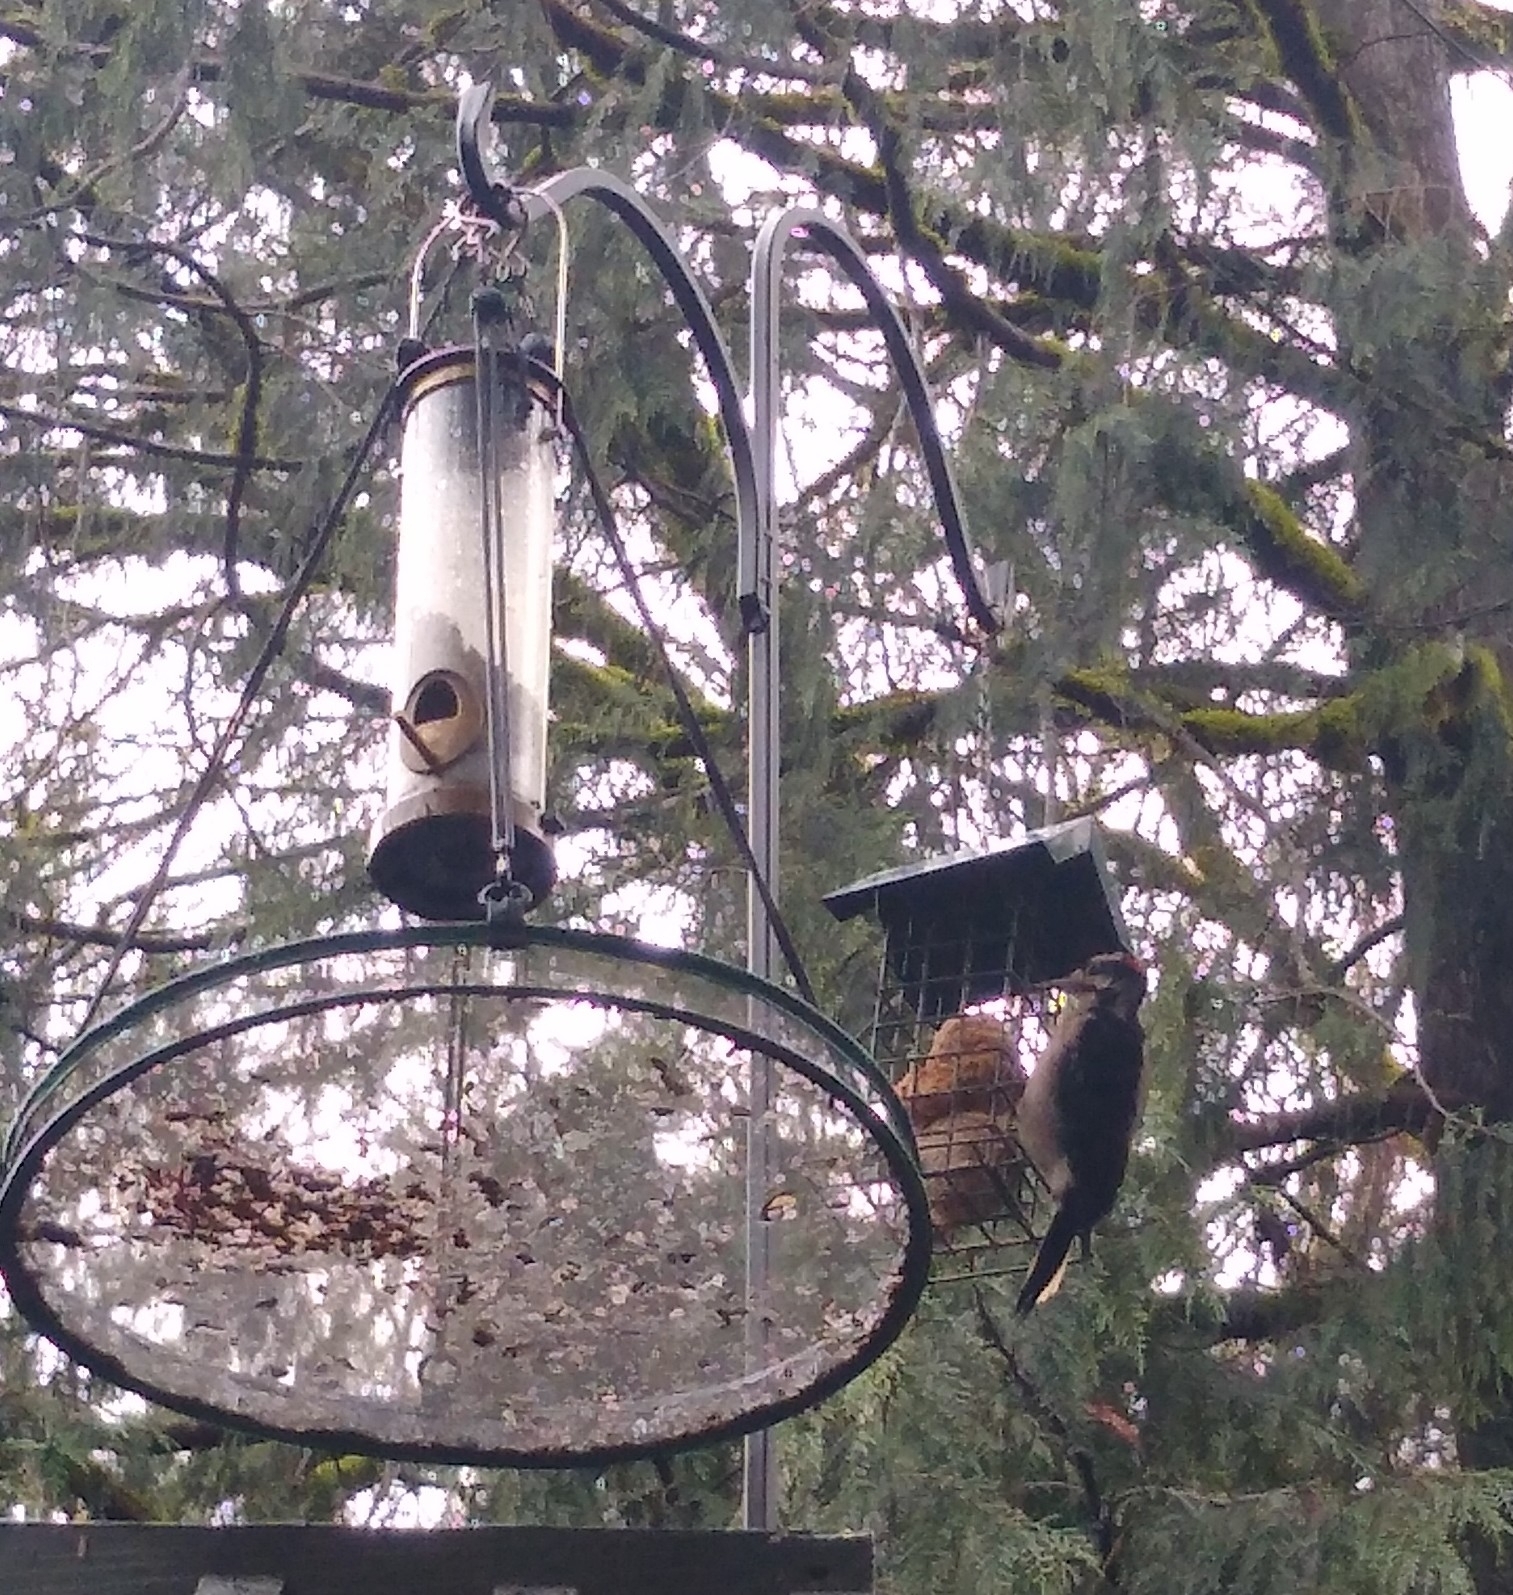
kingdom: Animalia
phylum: Chordata
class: Aves
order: Piciformes
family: Picidae
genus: Leuconotopicus
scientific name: Leuconotopicus villosus
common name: Hairy woodpecker
